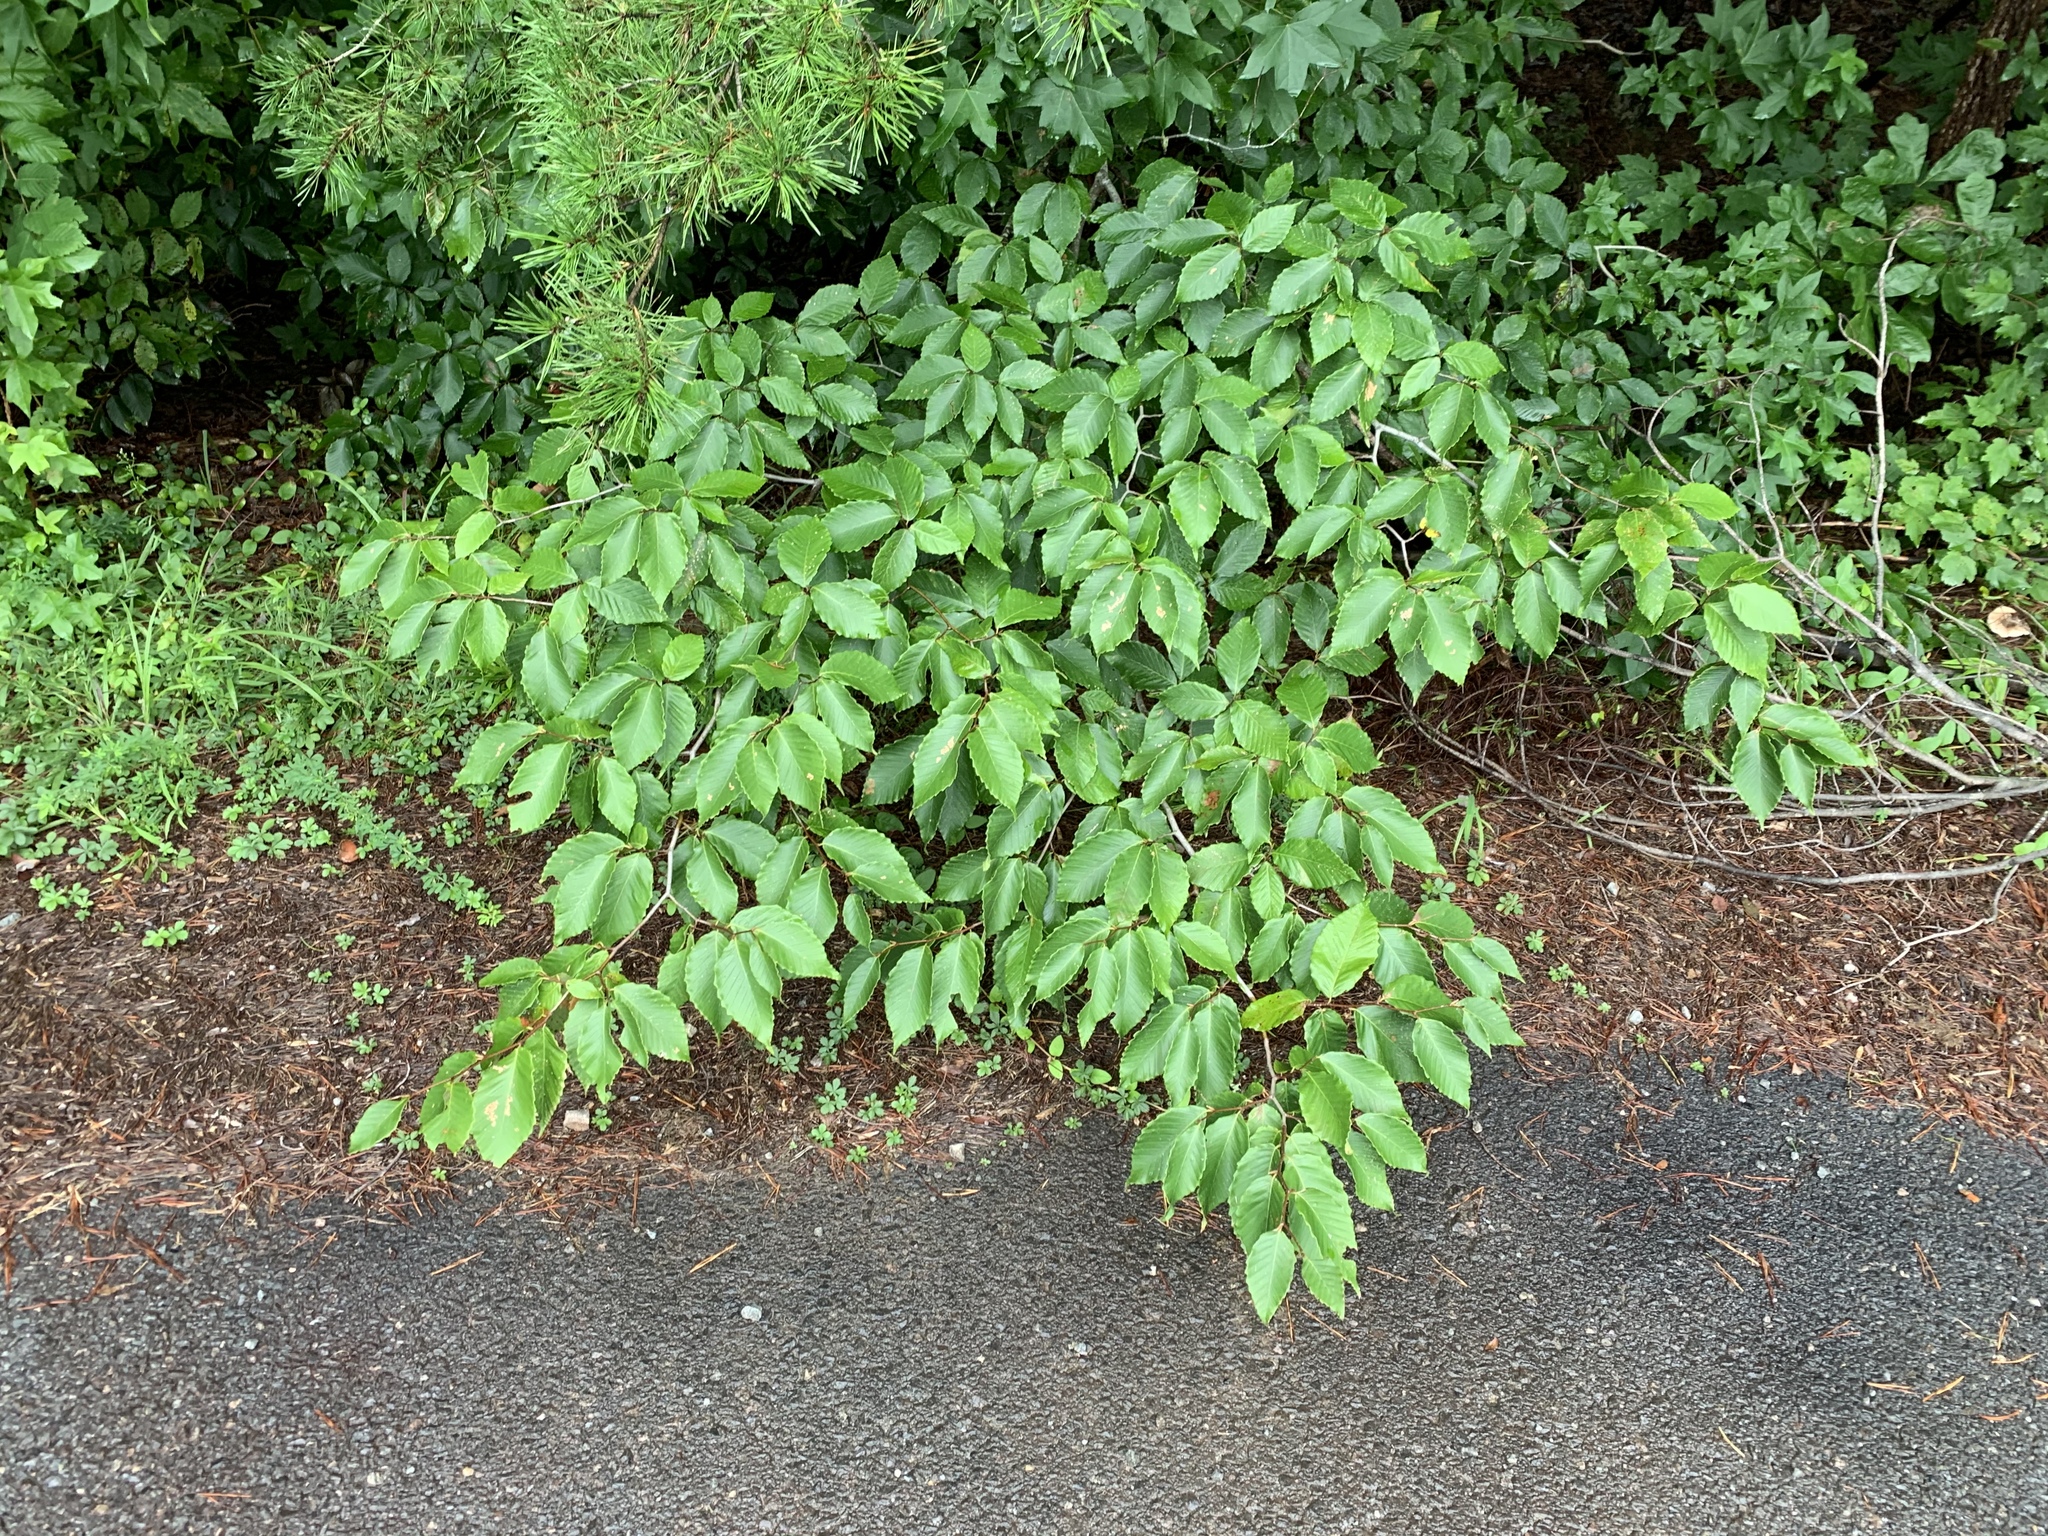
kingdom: Plantae
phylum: Tracheophyta
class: Magnoliopsida
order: Fagales
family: Fagaceae
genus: Fagus
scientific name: Fagus grandifolia
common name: American beech
